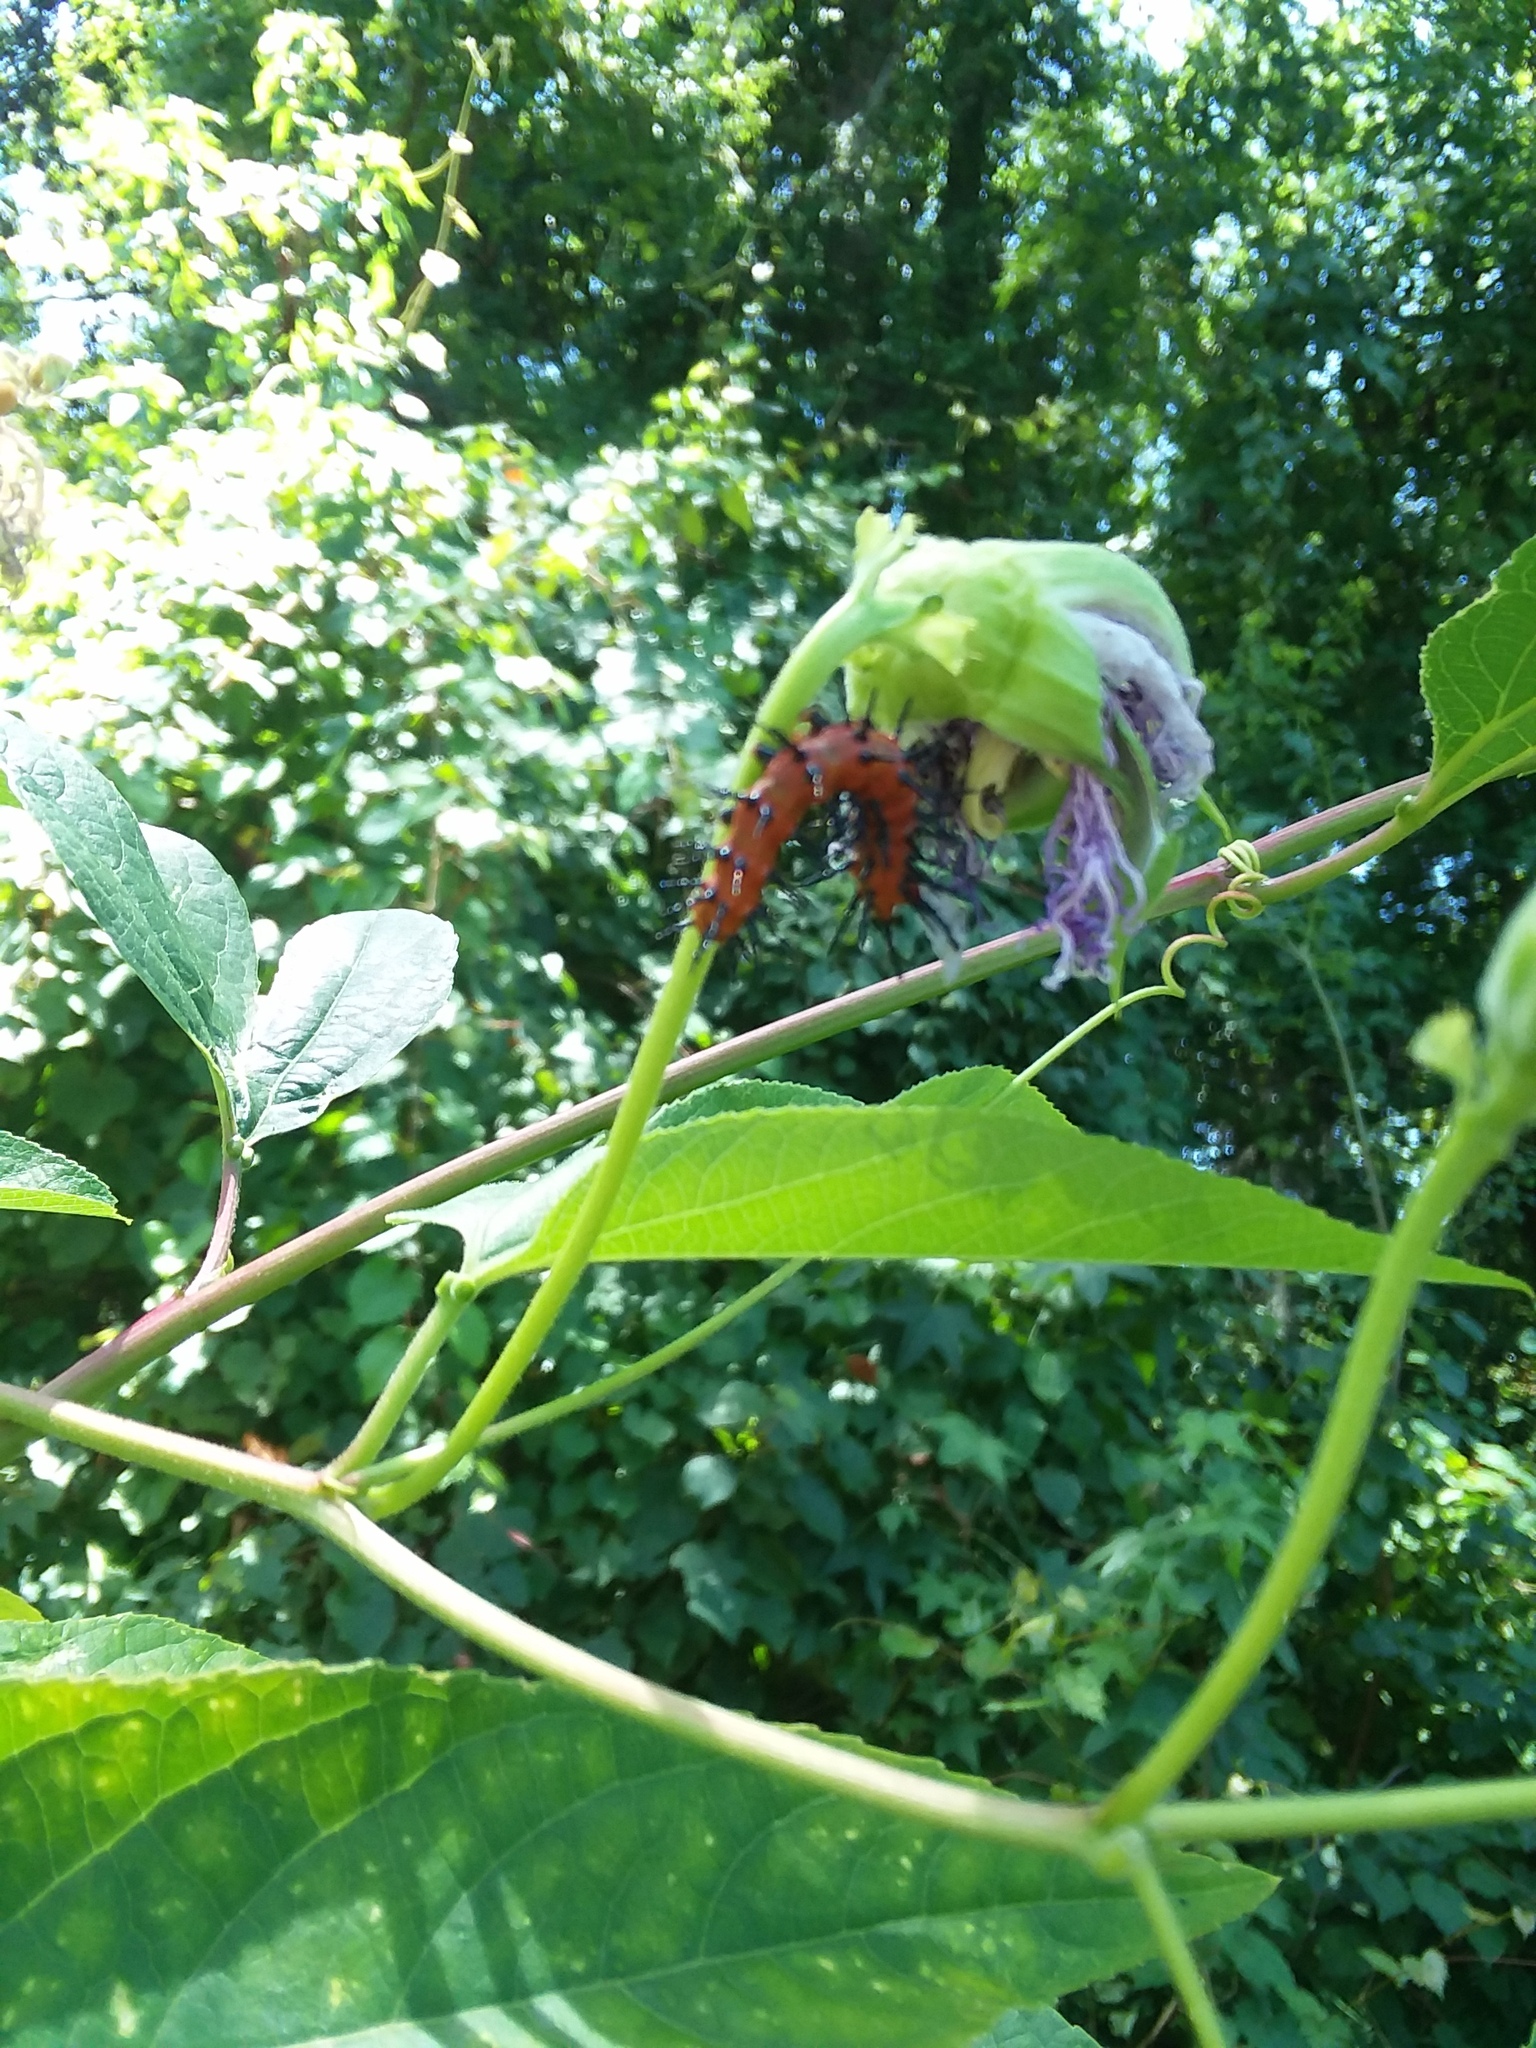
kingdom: Animalia
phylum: Arthropoda
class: Insecta
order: Lepidoptera
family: Nymphalidae
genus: Dione
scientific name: Dione vanillae
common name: Gulf fritillary
